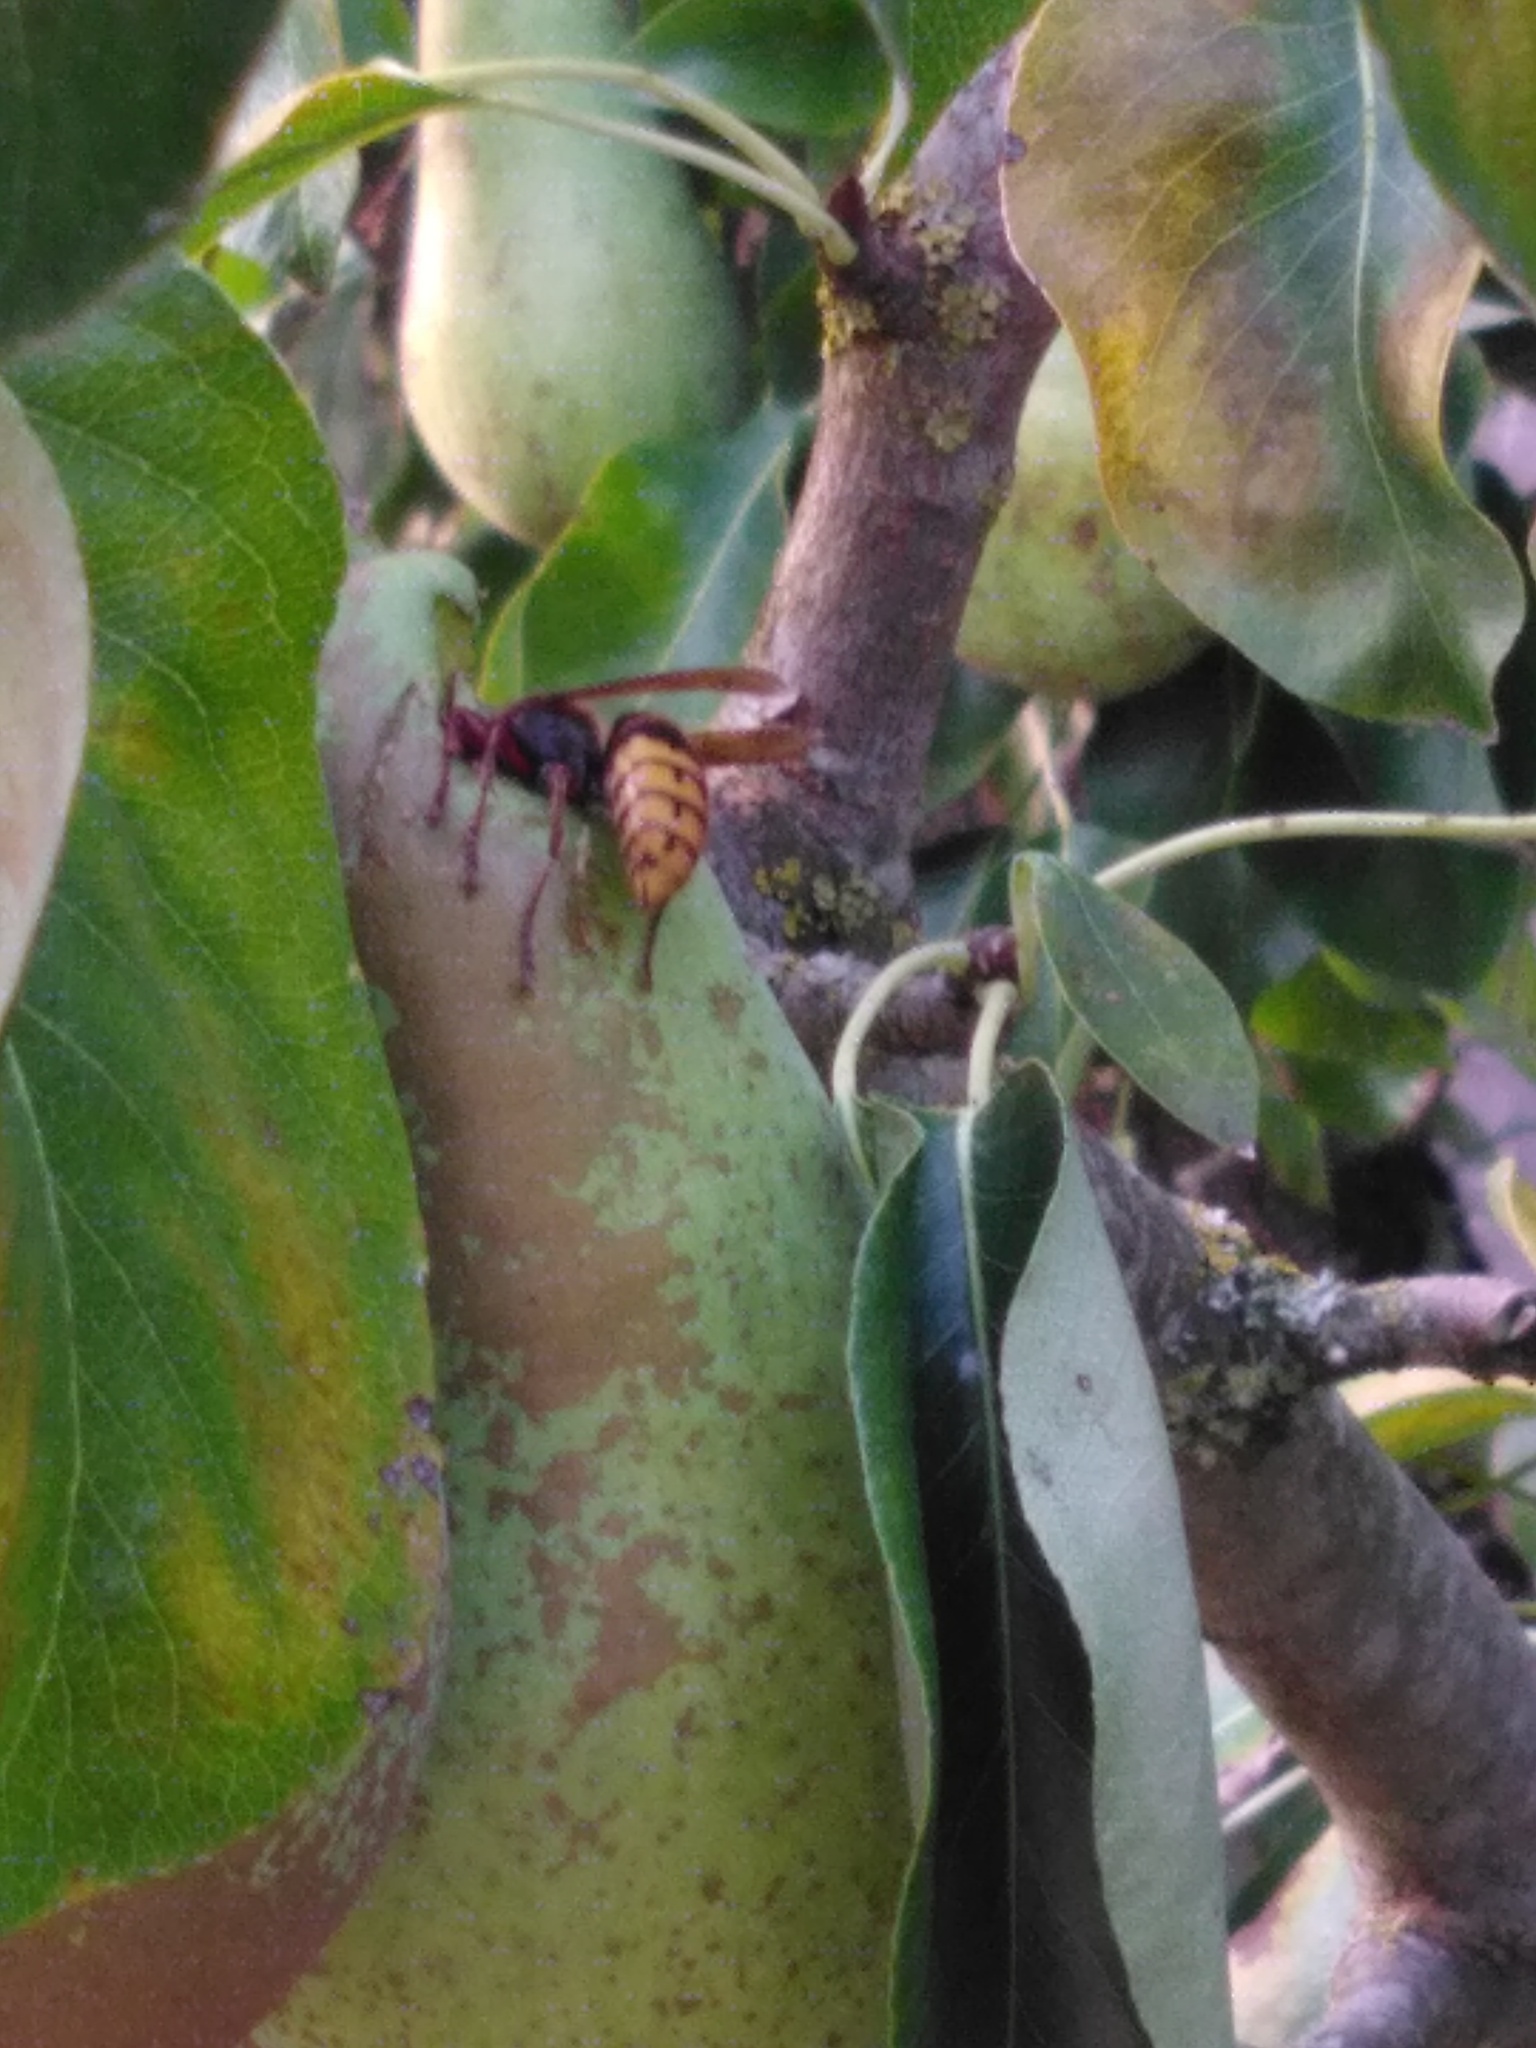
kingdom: Animalia
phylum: Arthropoda
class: Insecta
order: Hymenoptera
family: Vespidae
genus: Vespa
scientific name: Vespa crabro
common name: Hornet
